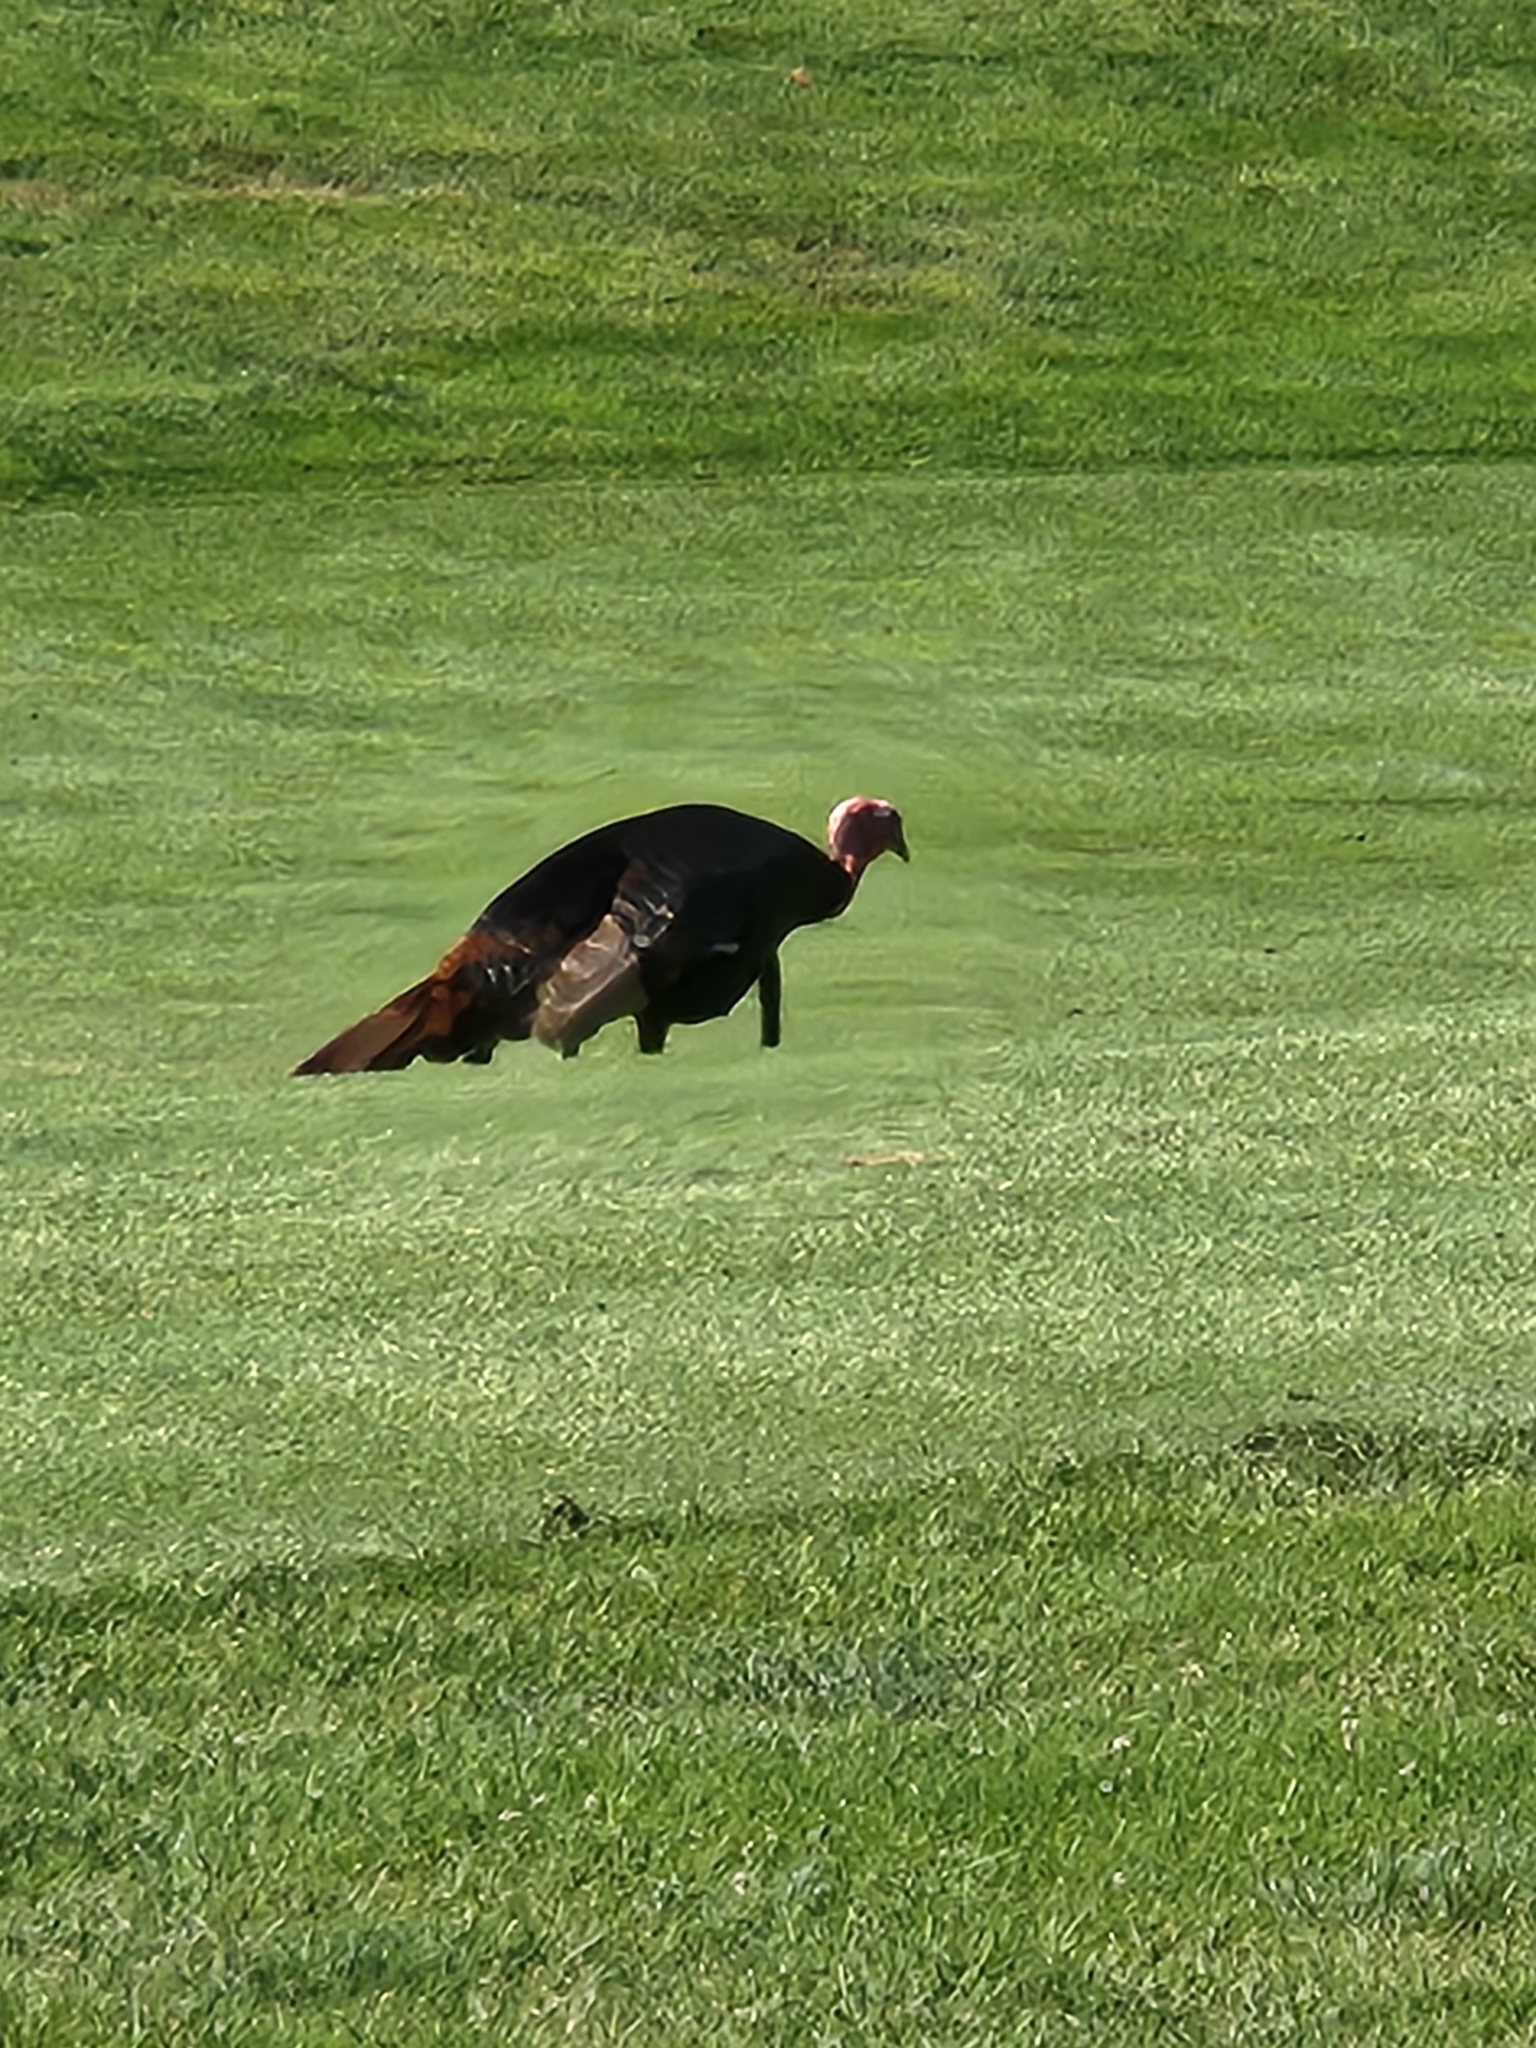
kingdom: Animalia
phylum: Chordata
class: Aves
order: Galliformes
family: Phasianidae
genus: Meleagris
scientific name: Meleagris gallopavo
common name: Wild turkey
